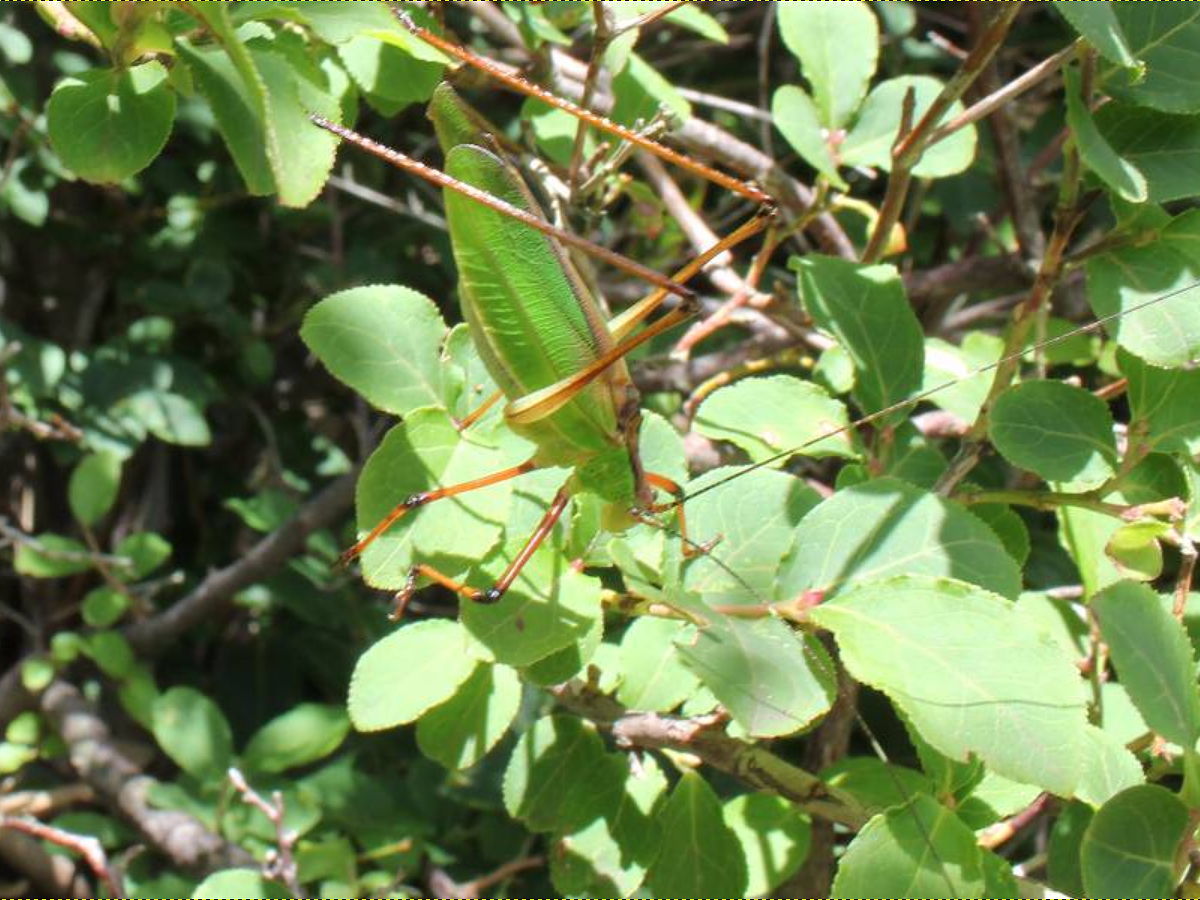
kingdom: Animalia
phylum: Arthropoda
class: Insecta
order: Orthoptera
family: Tettigoniidae
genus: Shirakisotima
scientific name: Shirakisotima japonica
